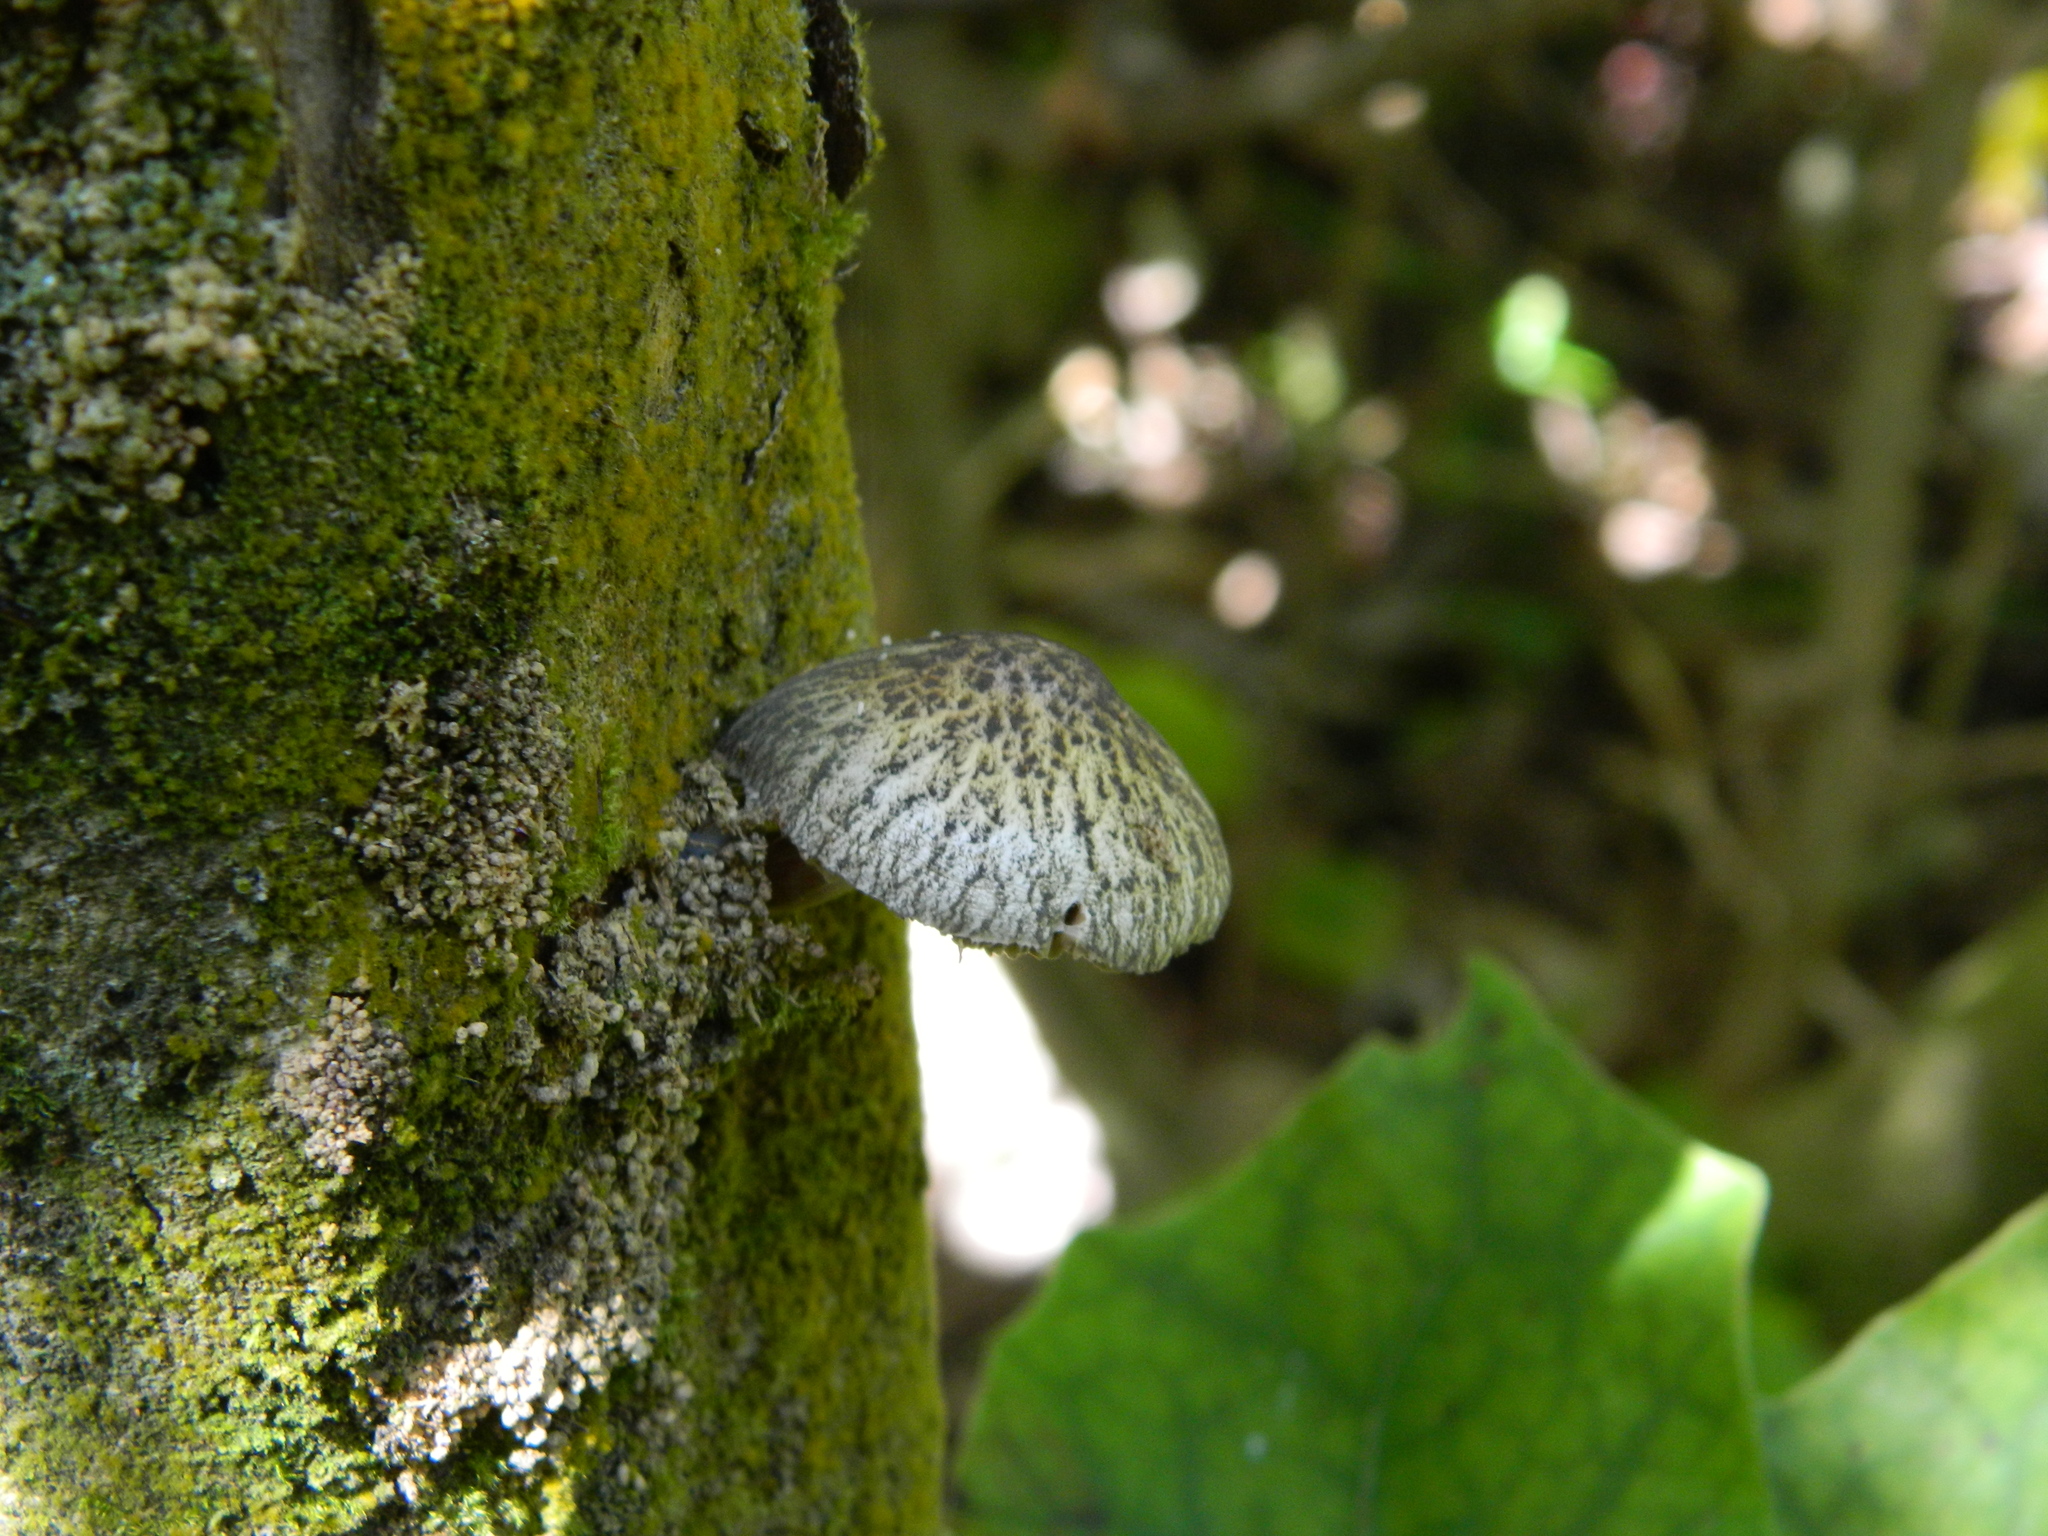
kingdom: Fungi
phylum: Basidiomycota
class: Agaricomycetes
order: Agaricales
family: Pluteaceae
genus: Pluteus
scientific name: Pluteus
